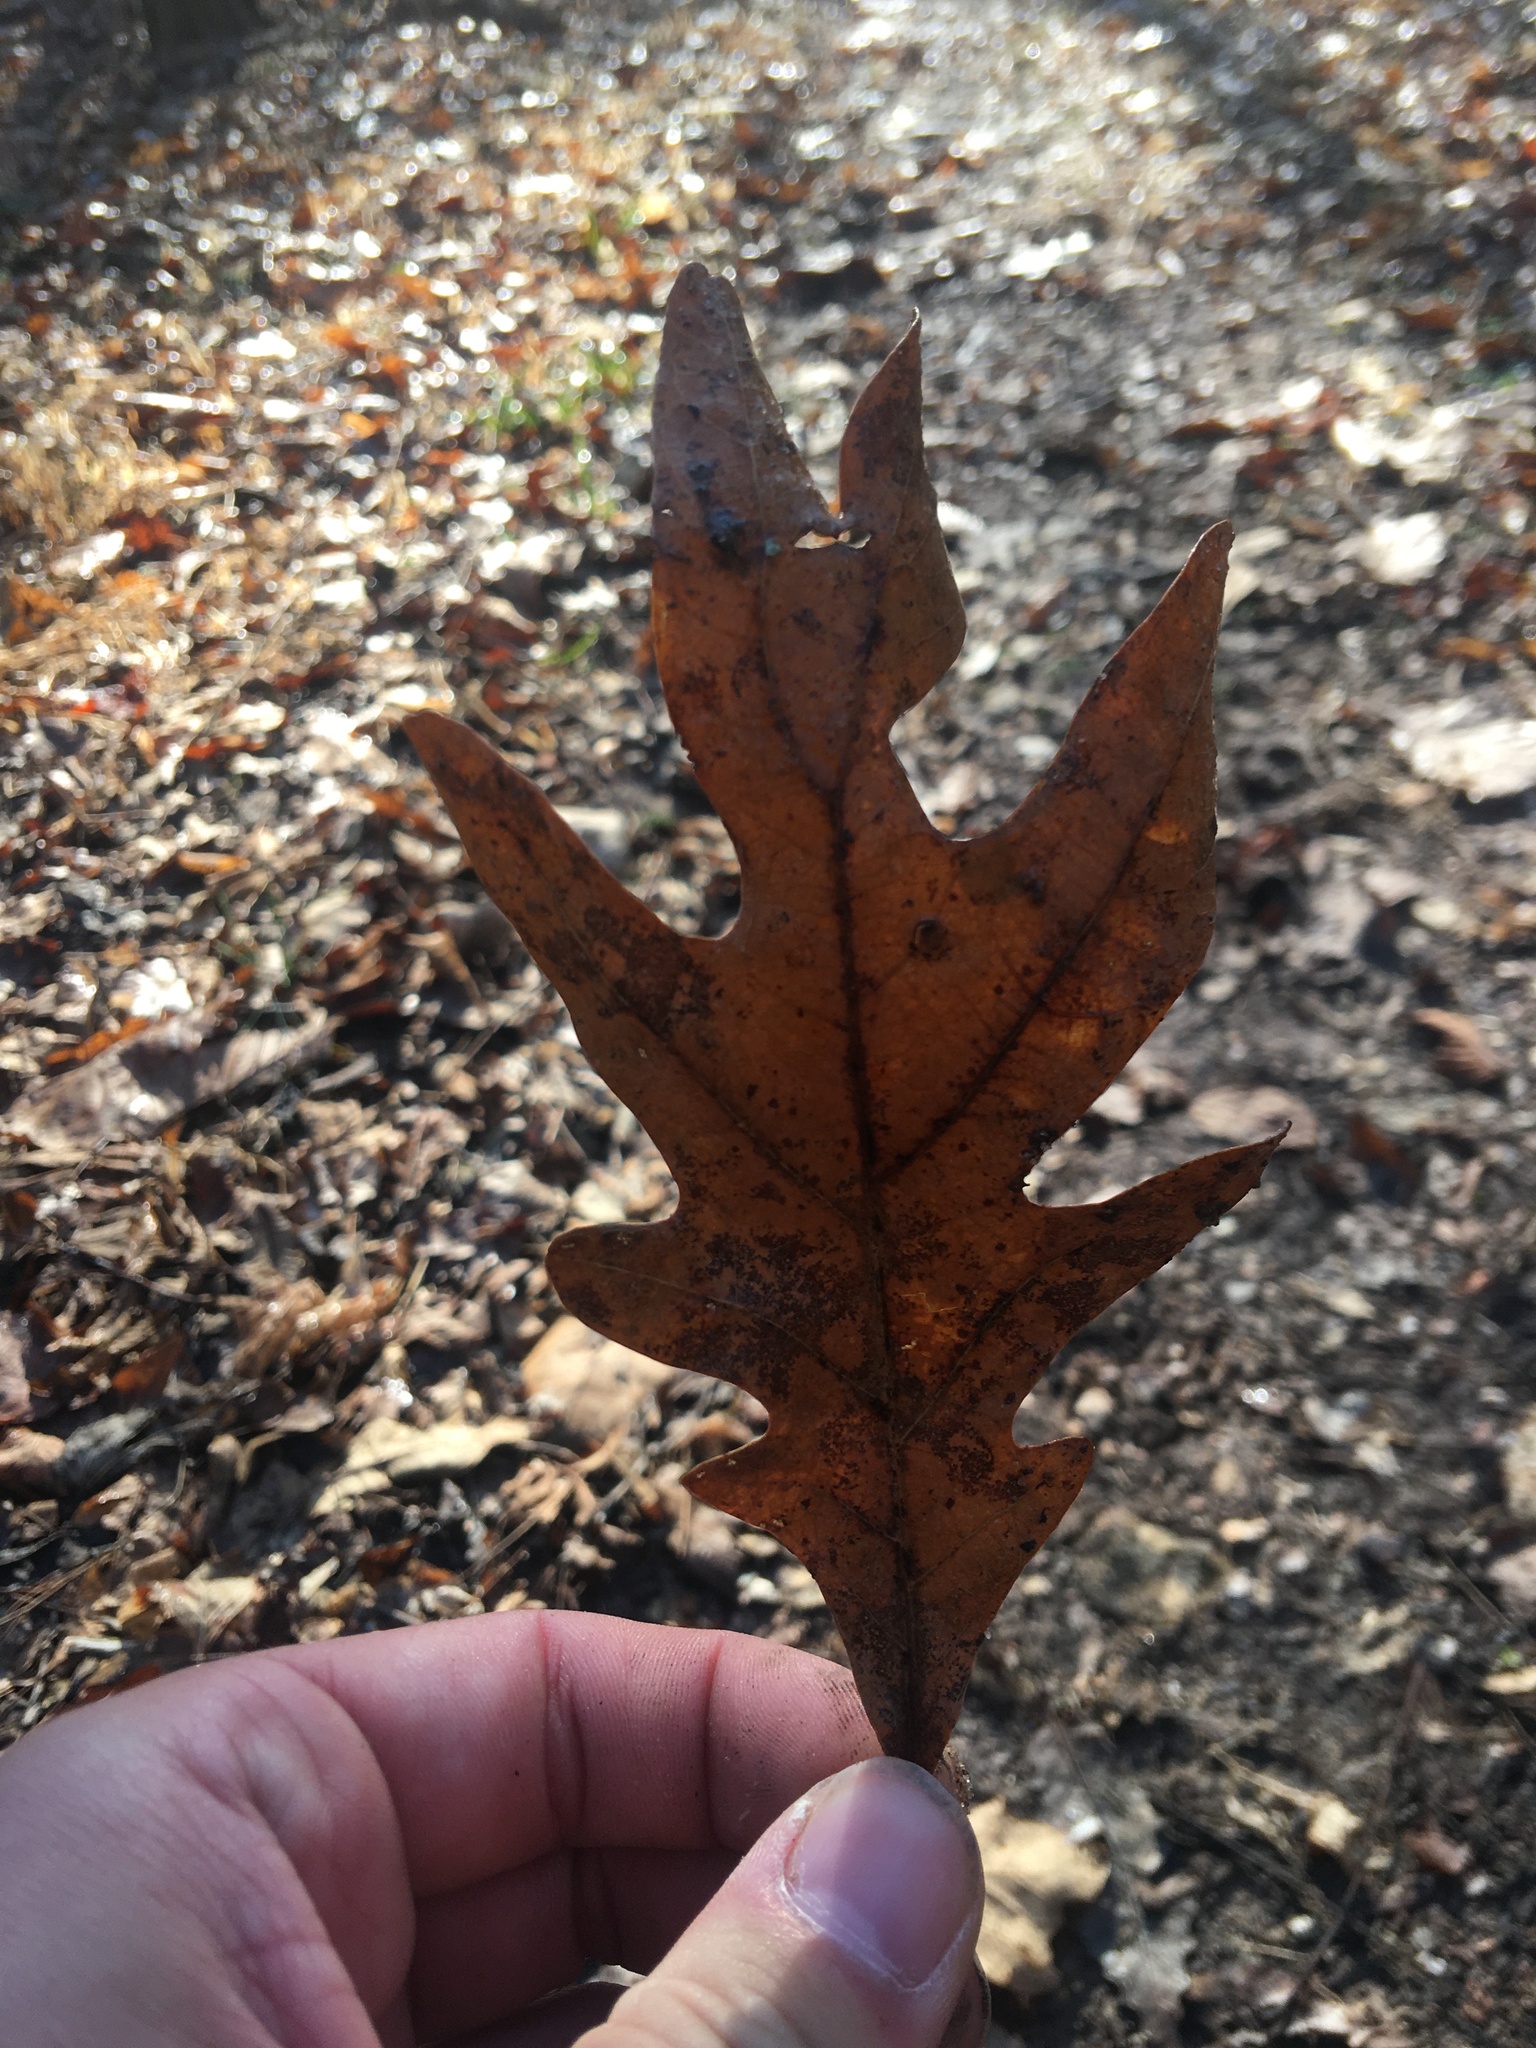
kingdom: Plantae
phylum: Tracheophyta
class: Magnoliopsida
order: Fagales
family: Fagaceae
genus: Quercus
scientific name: Quercus alba
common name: White oak
